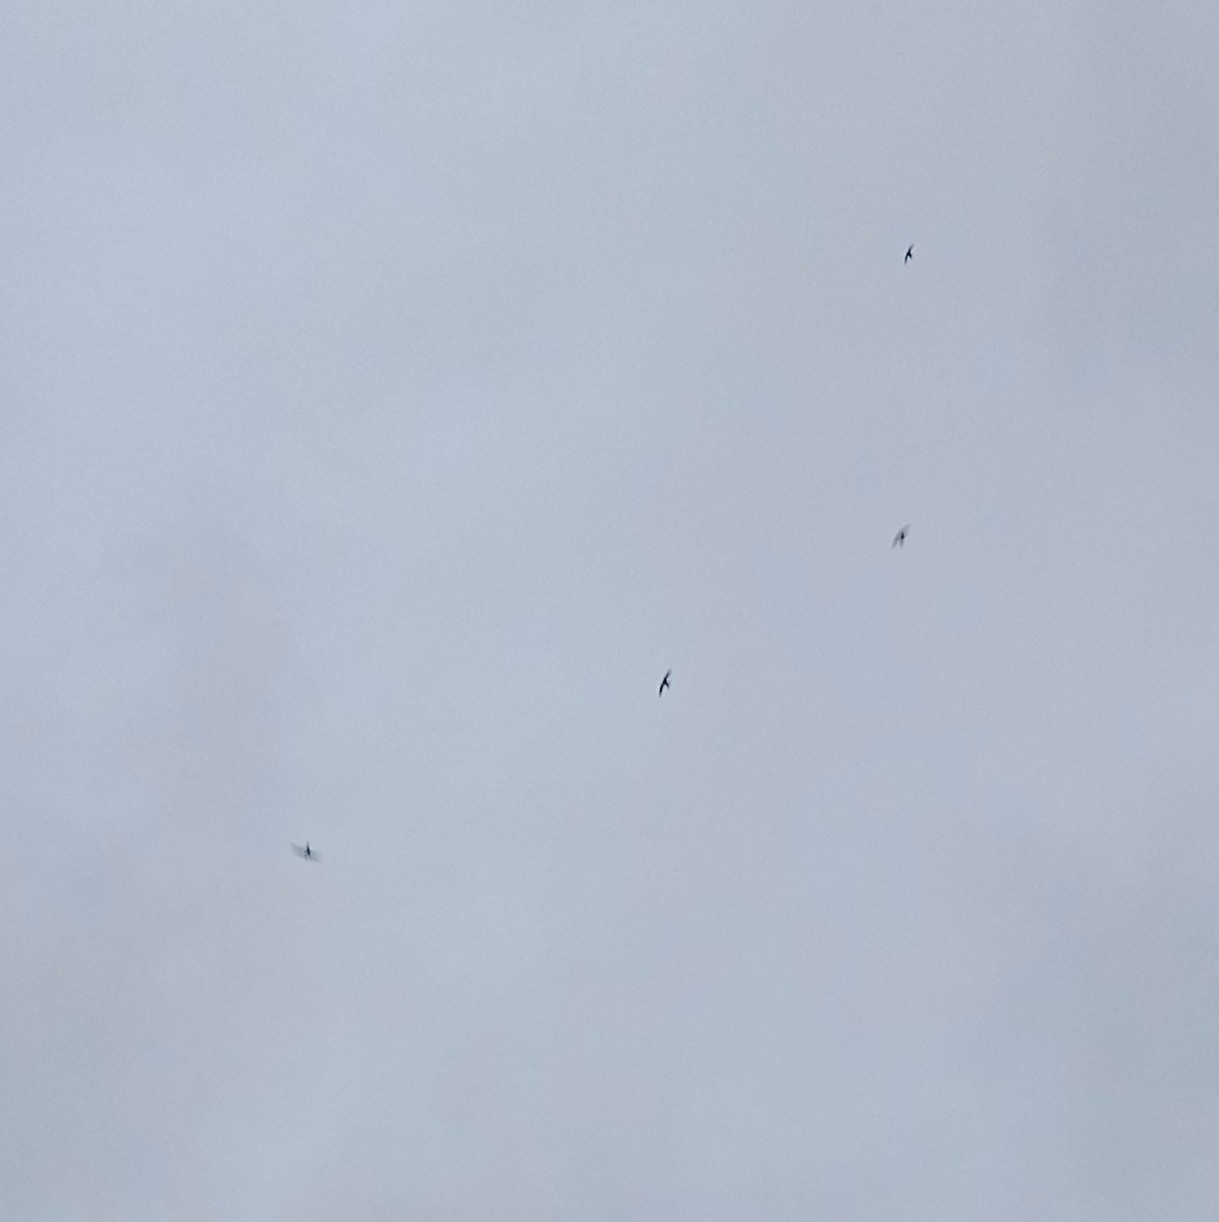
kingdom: Animalia
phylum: Chordata
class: Aves
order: Apodiformes
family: Apodidae
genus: Apus
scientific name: Apus apus
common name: Common swift
